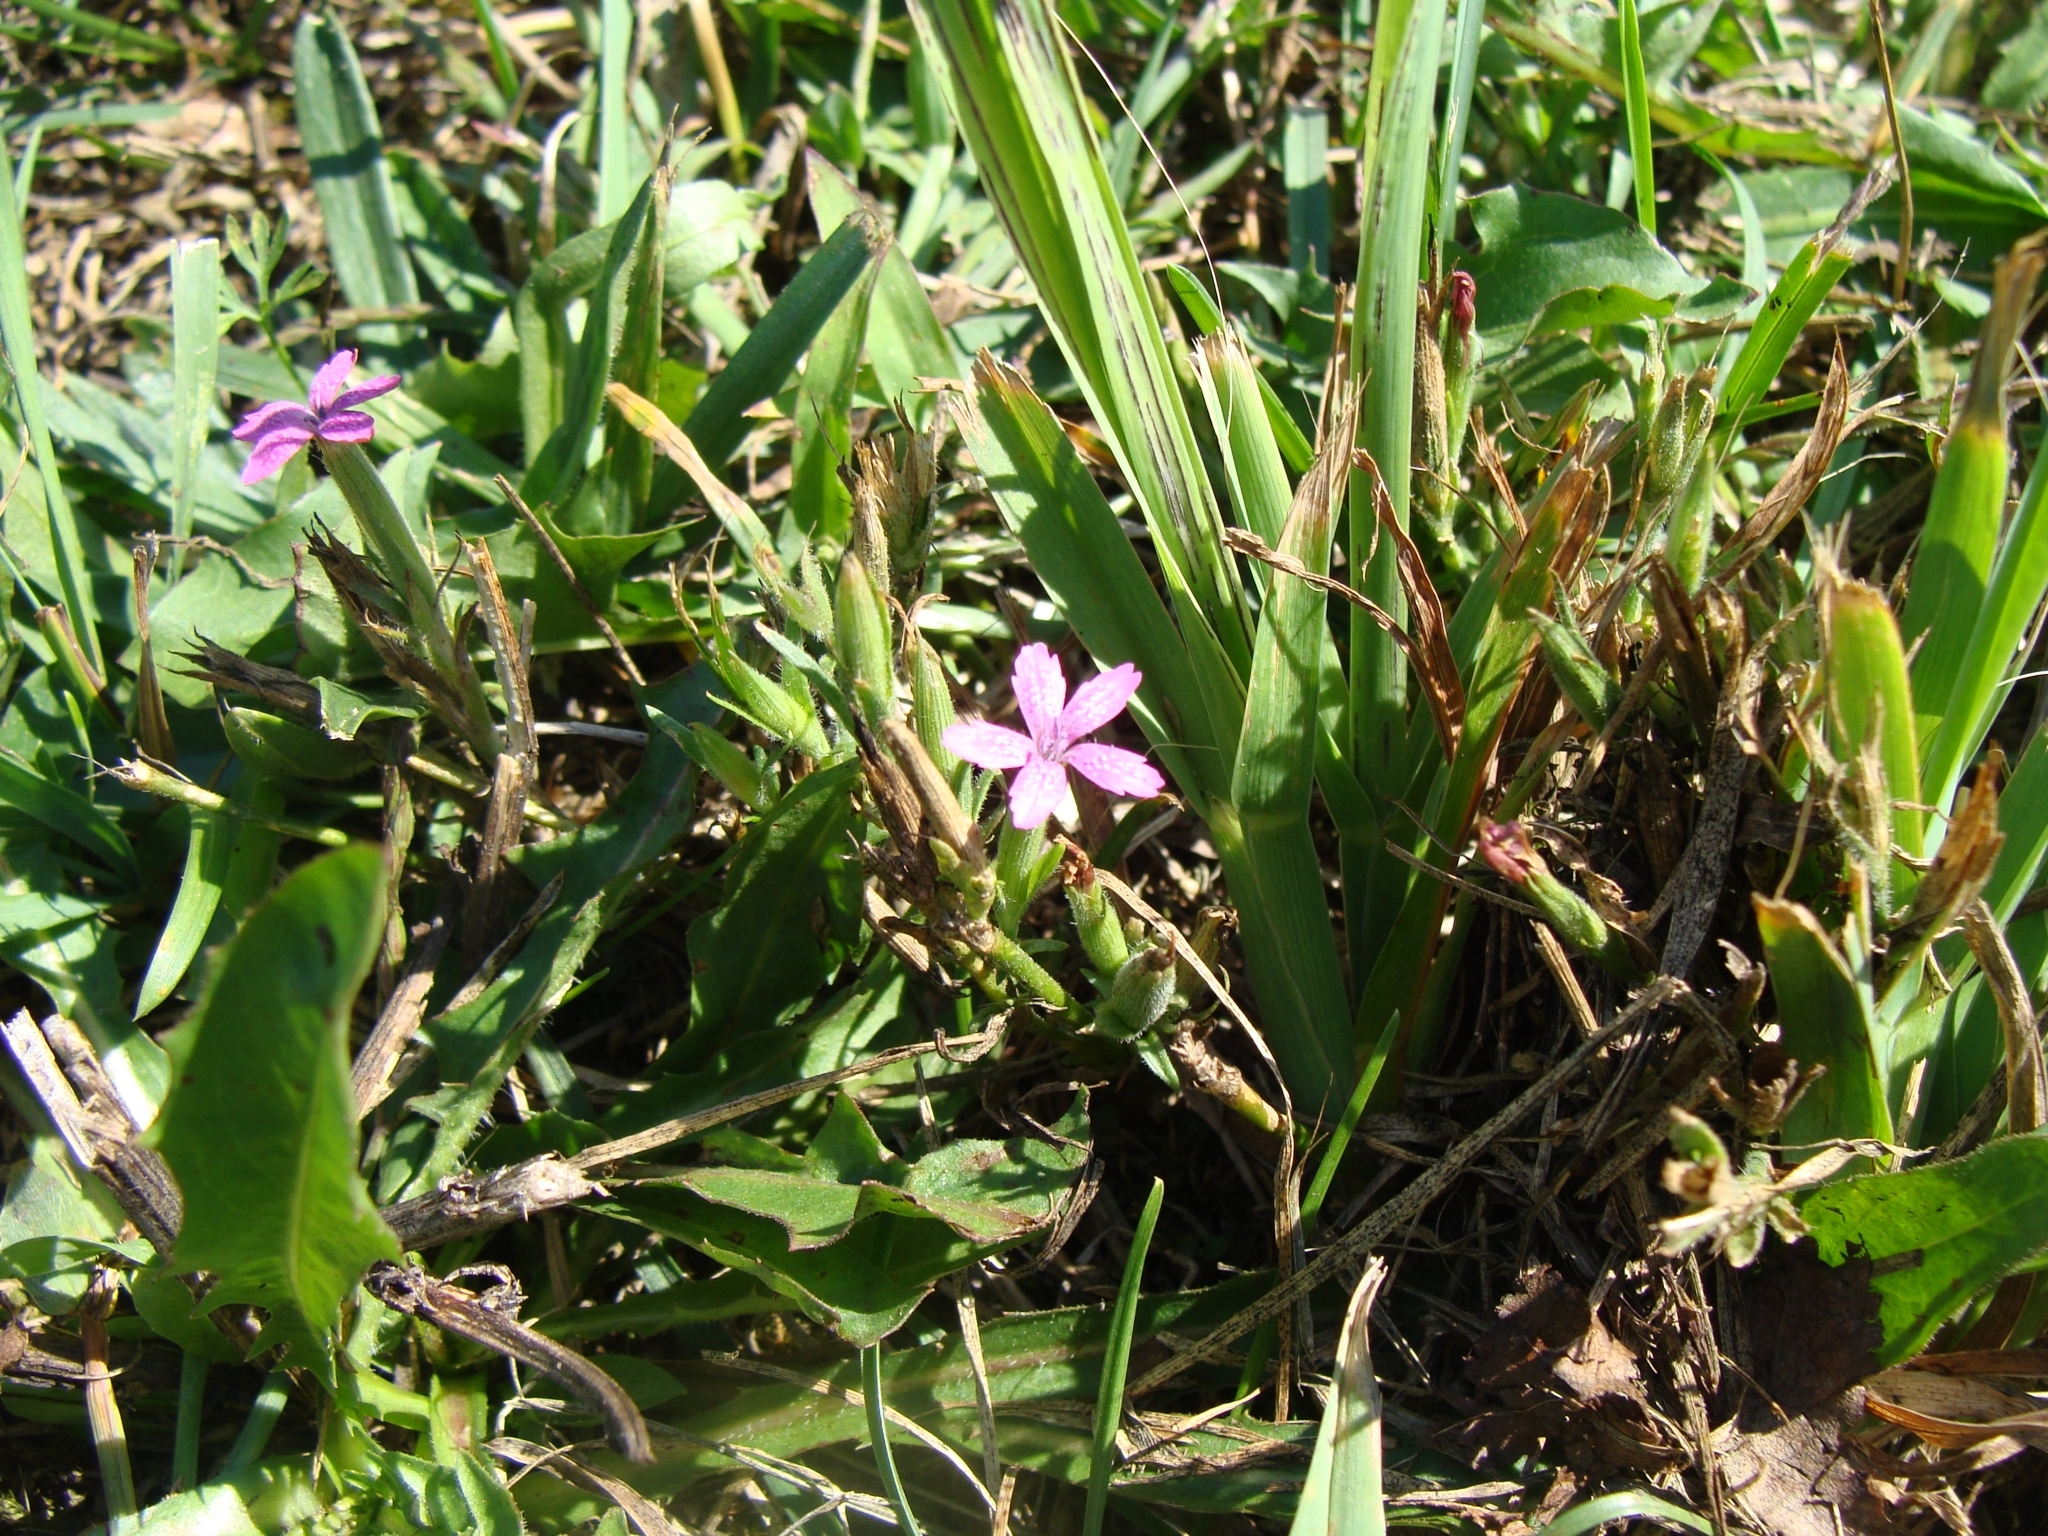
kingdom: Plantae
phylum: Tracheophyta
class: Magnoliopsida
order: Caryophyllales
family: Caryophyllaceae
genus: Dianthus
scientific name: Dianthus armeria
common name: Deptford pink
